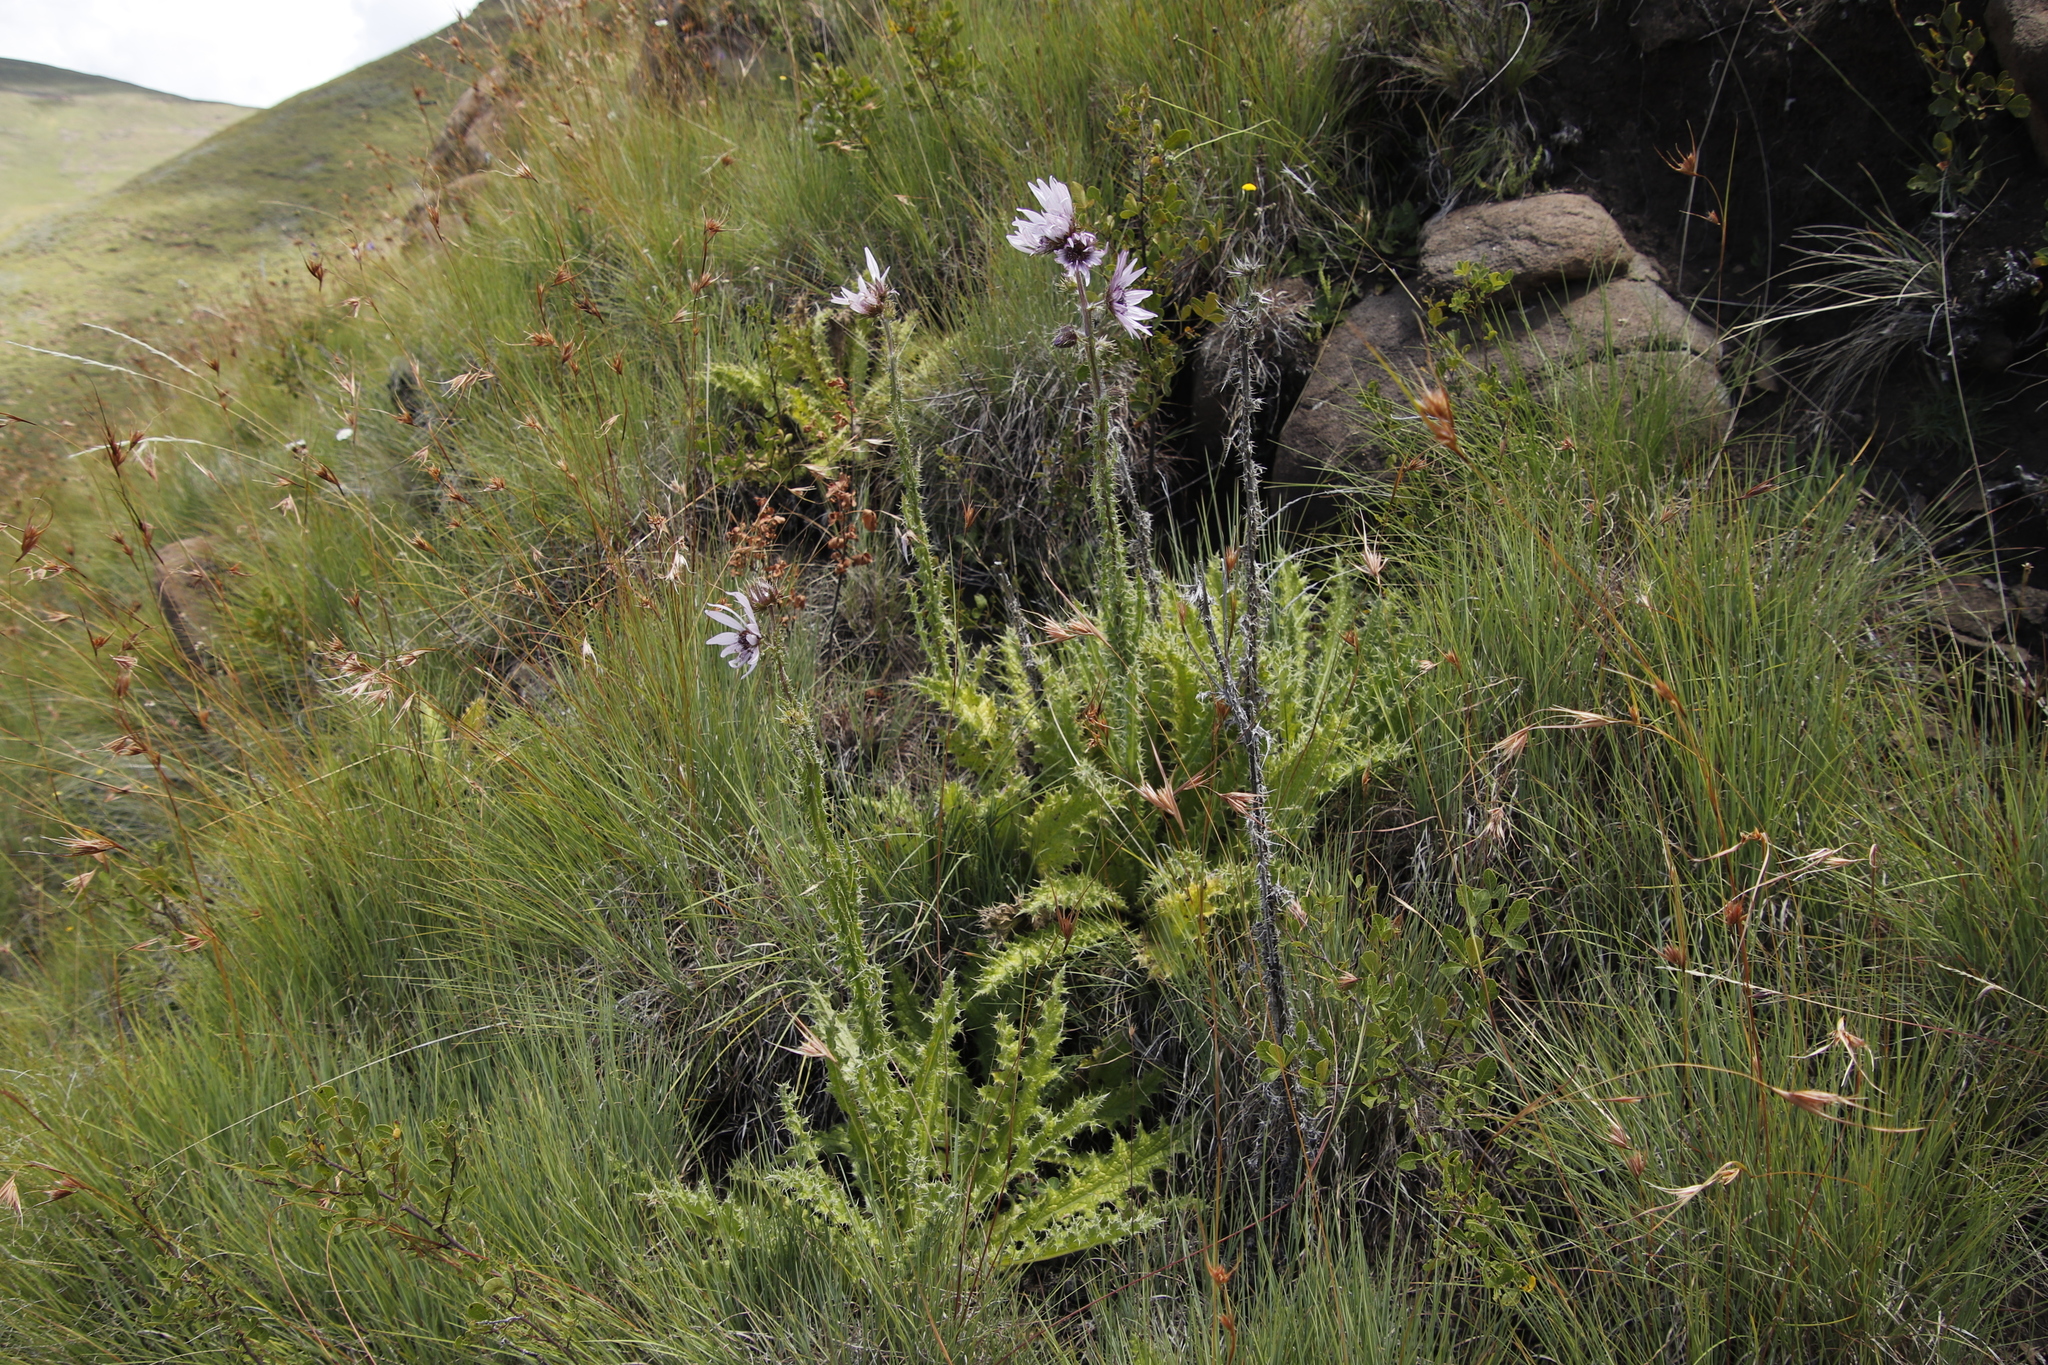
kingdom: Plantae
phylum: Tracheophyta
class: Magnoliopsida
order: Asterales
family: Asteraceae
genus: Berkheya
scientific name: Berkheya purpurea
